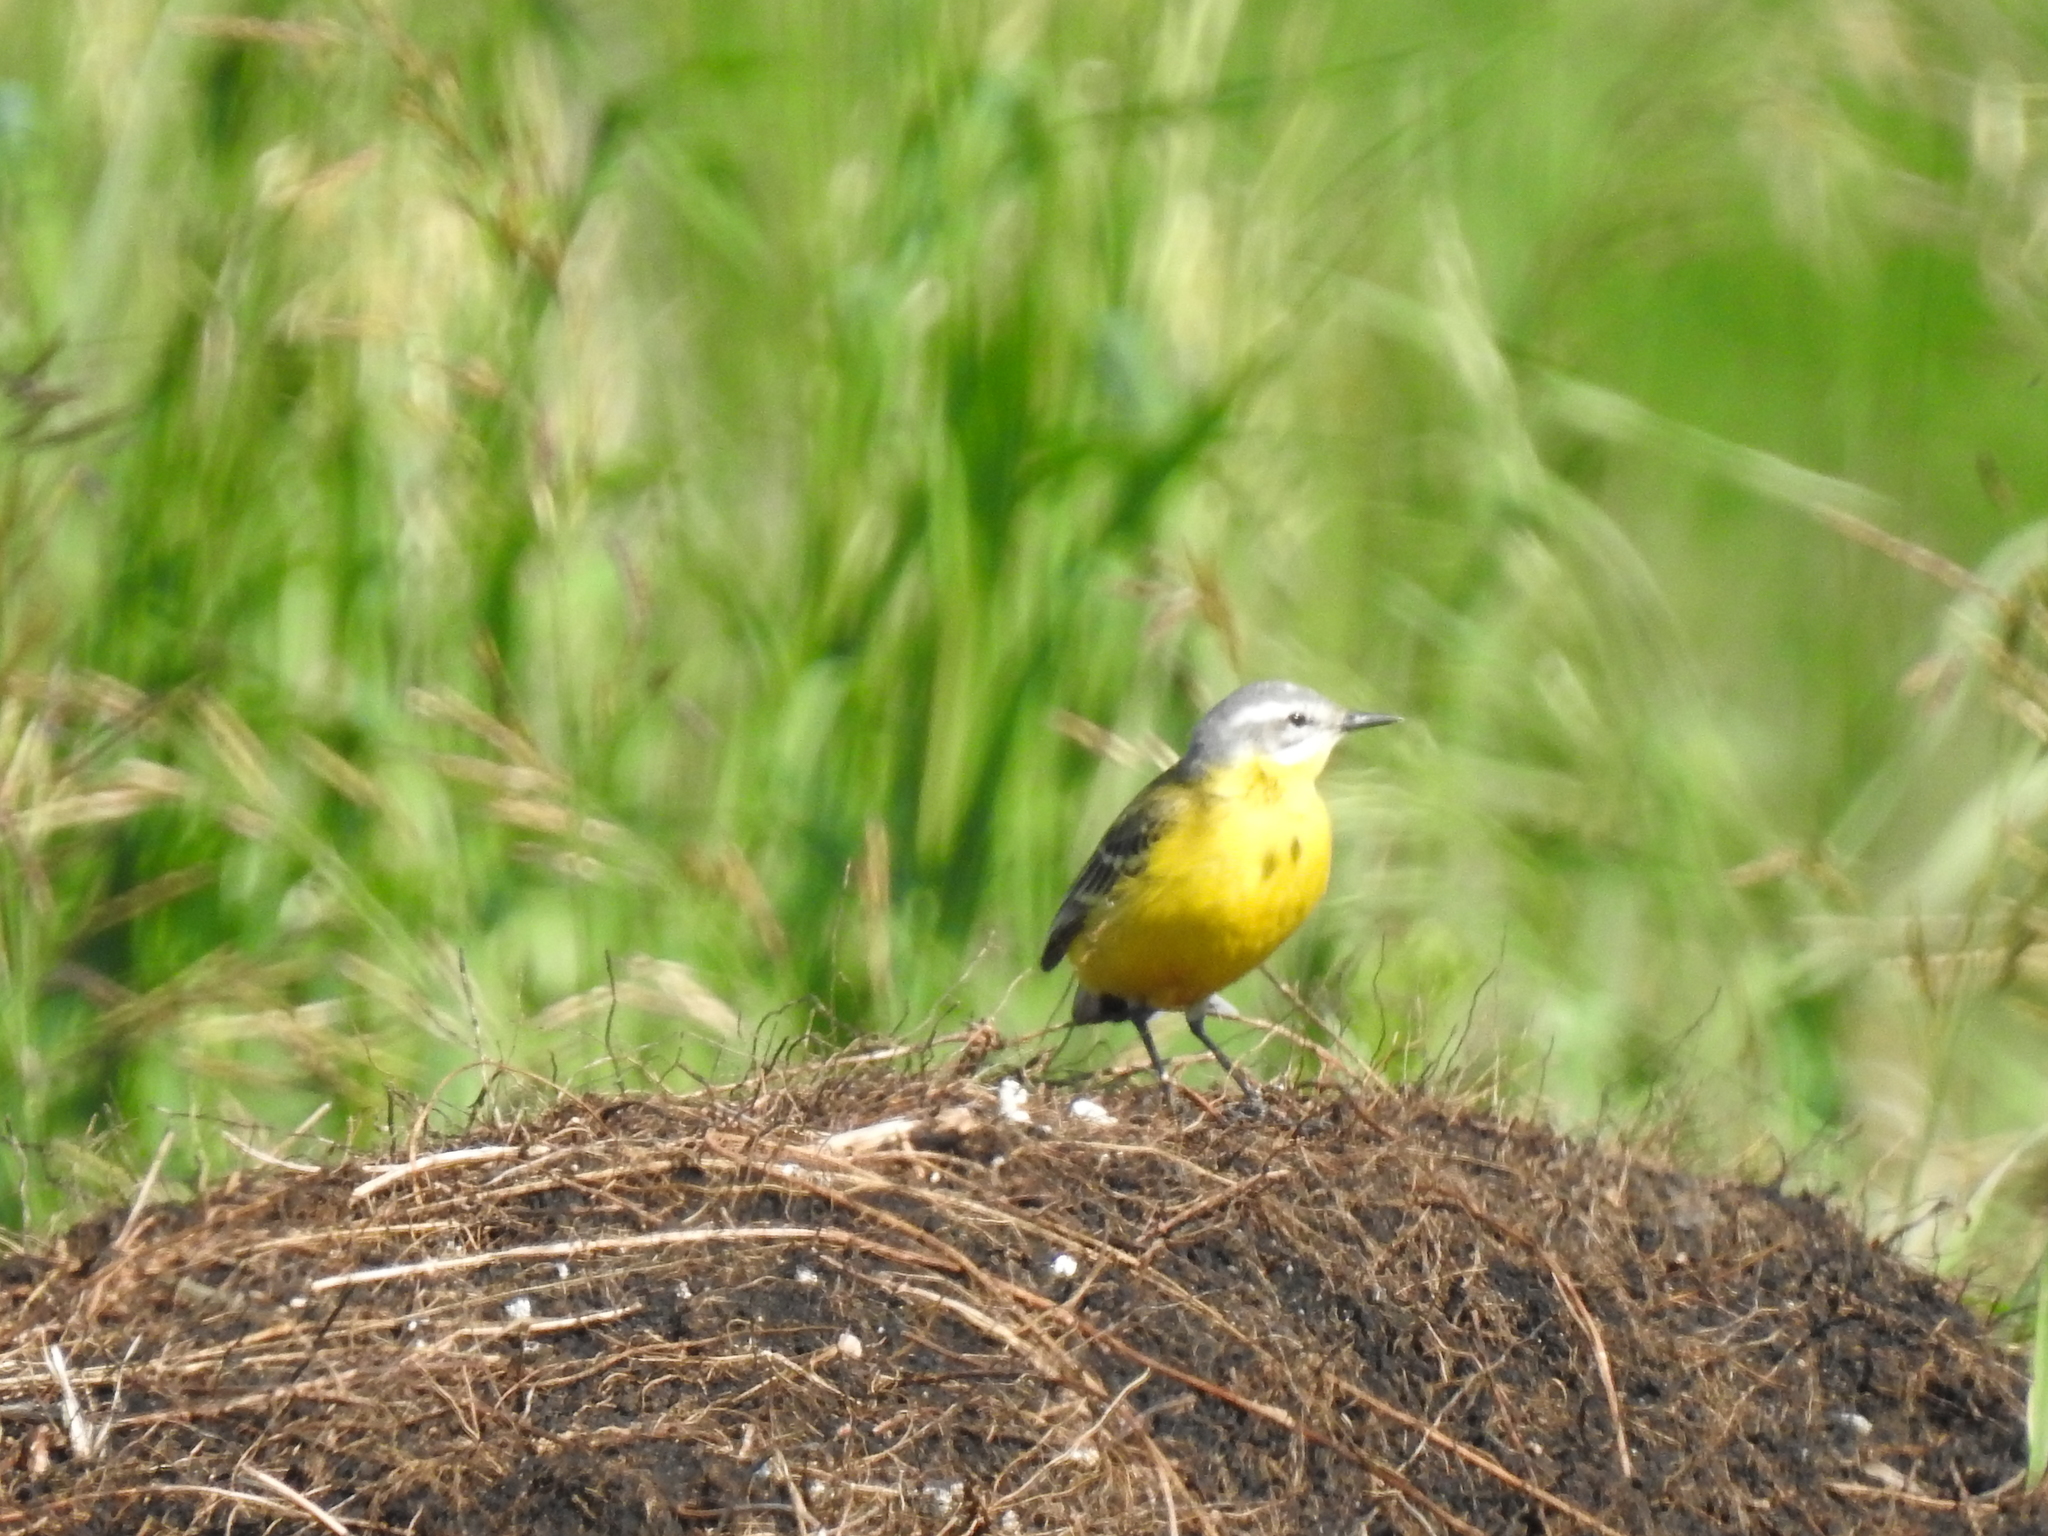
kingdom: Animalia
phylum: Chordata
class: Aves
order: Passeriformes
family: Motacillidae
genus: Motacilla
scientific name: Motacilla flava
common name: Western yellow wagtail
